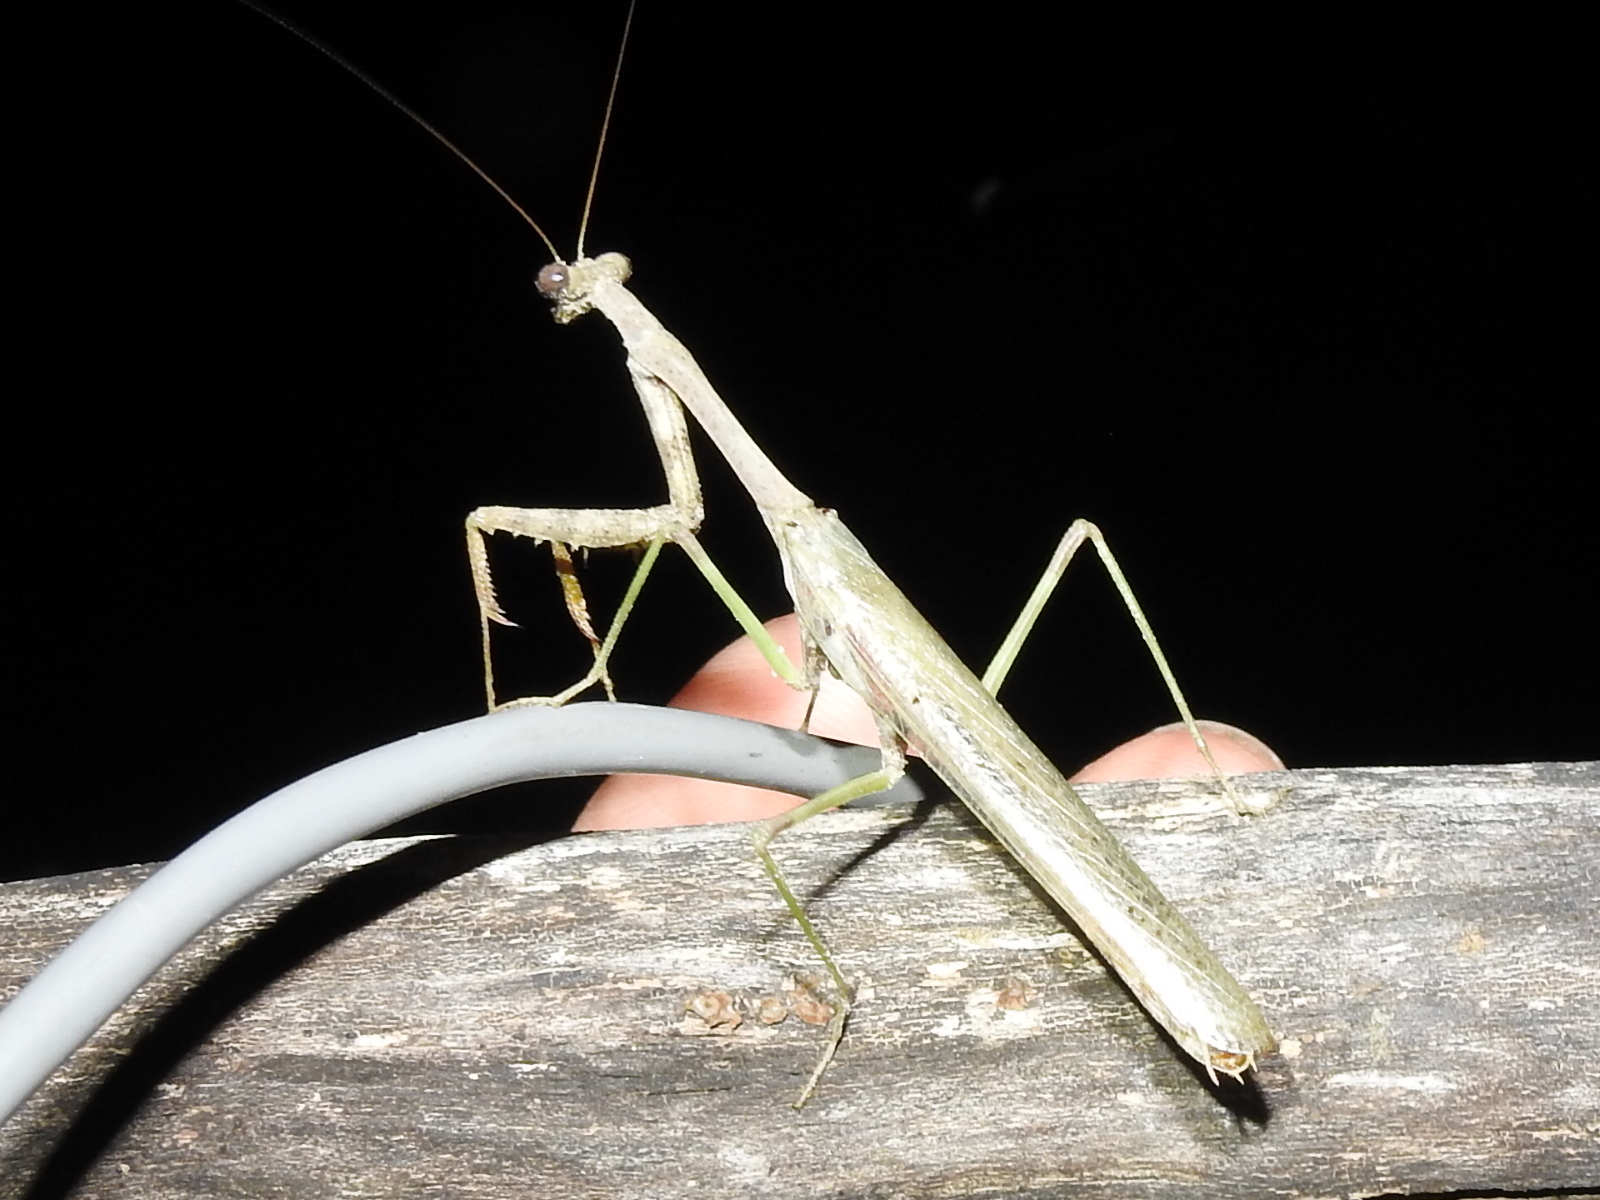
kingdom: Animalia
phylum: Arthropoda
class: Insecta
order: Mantodea
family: Mantidae
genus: Stagmomantis
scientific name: Stagmomantis carolina
